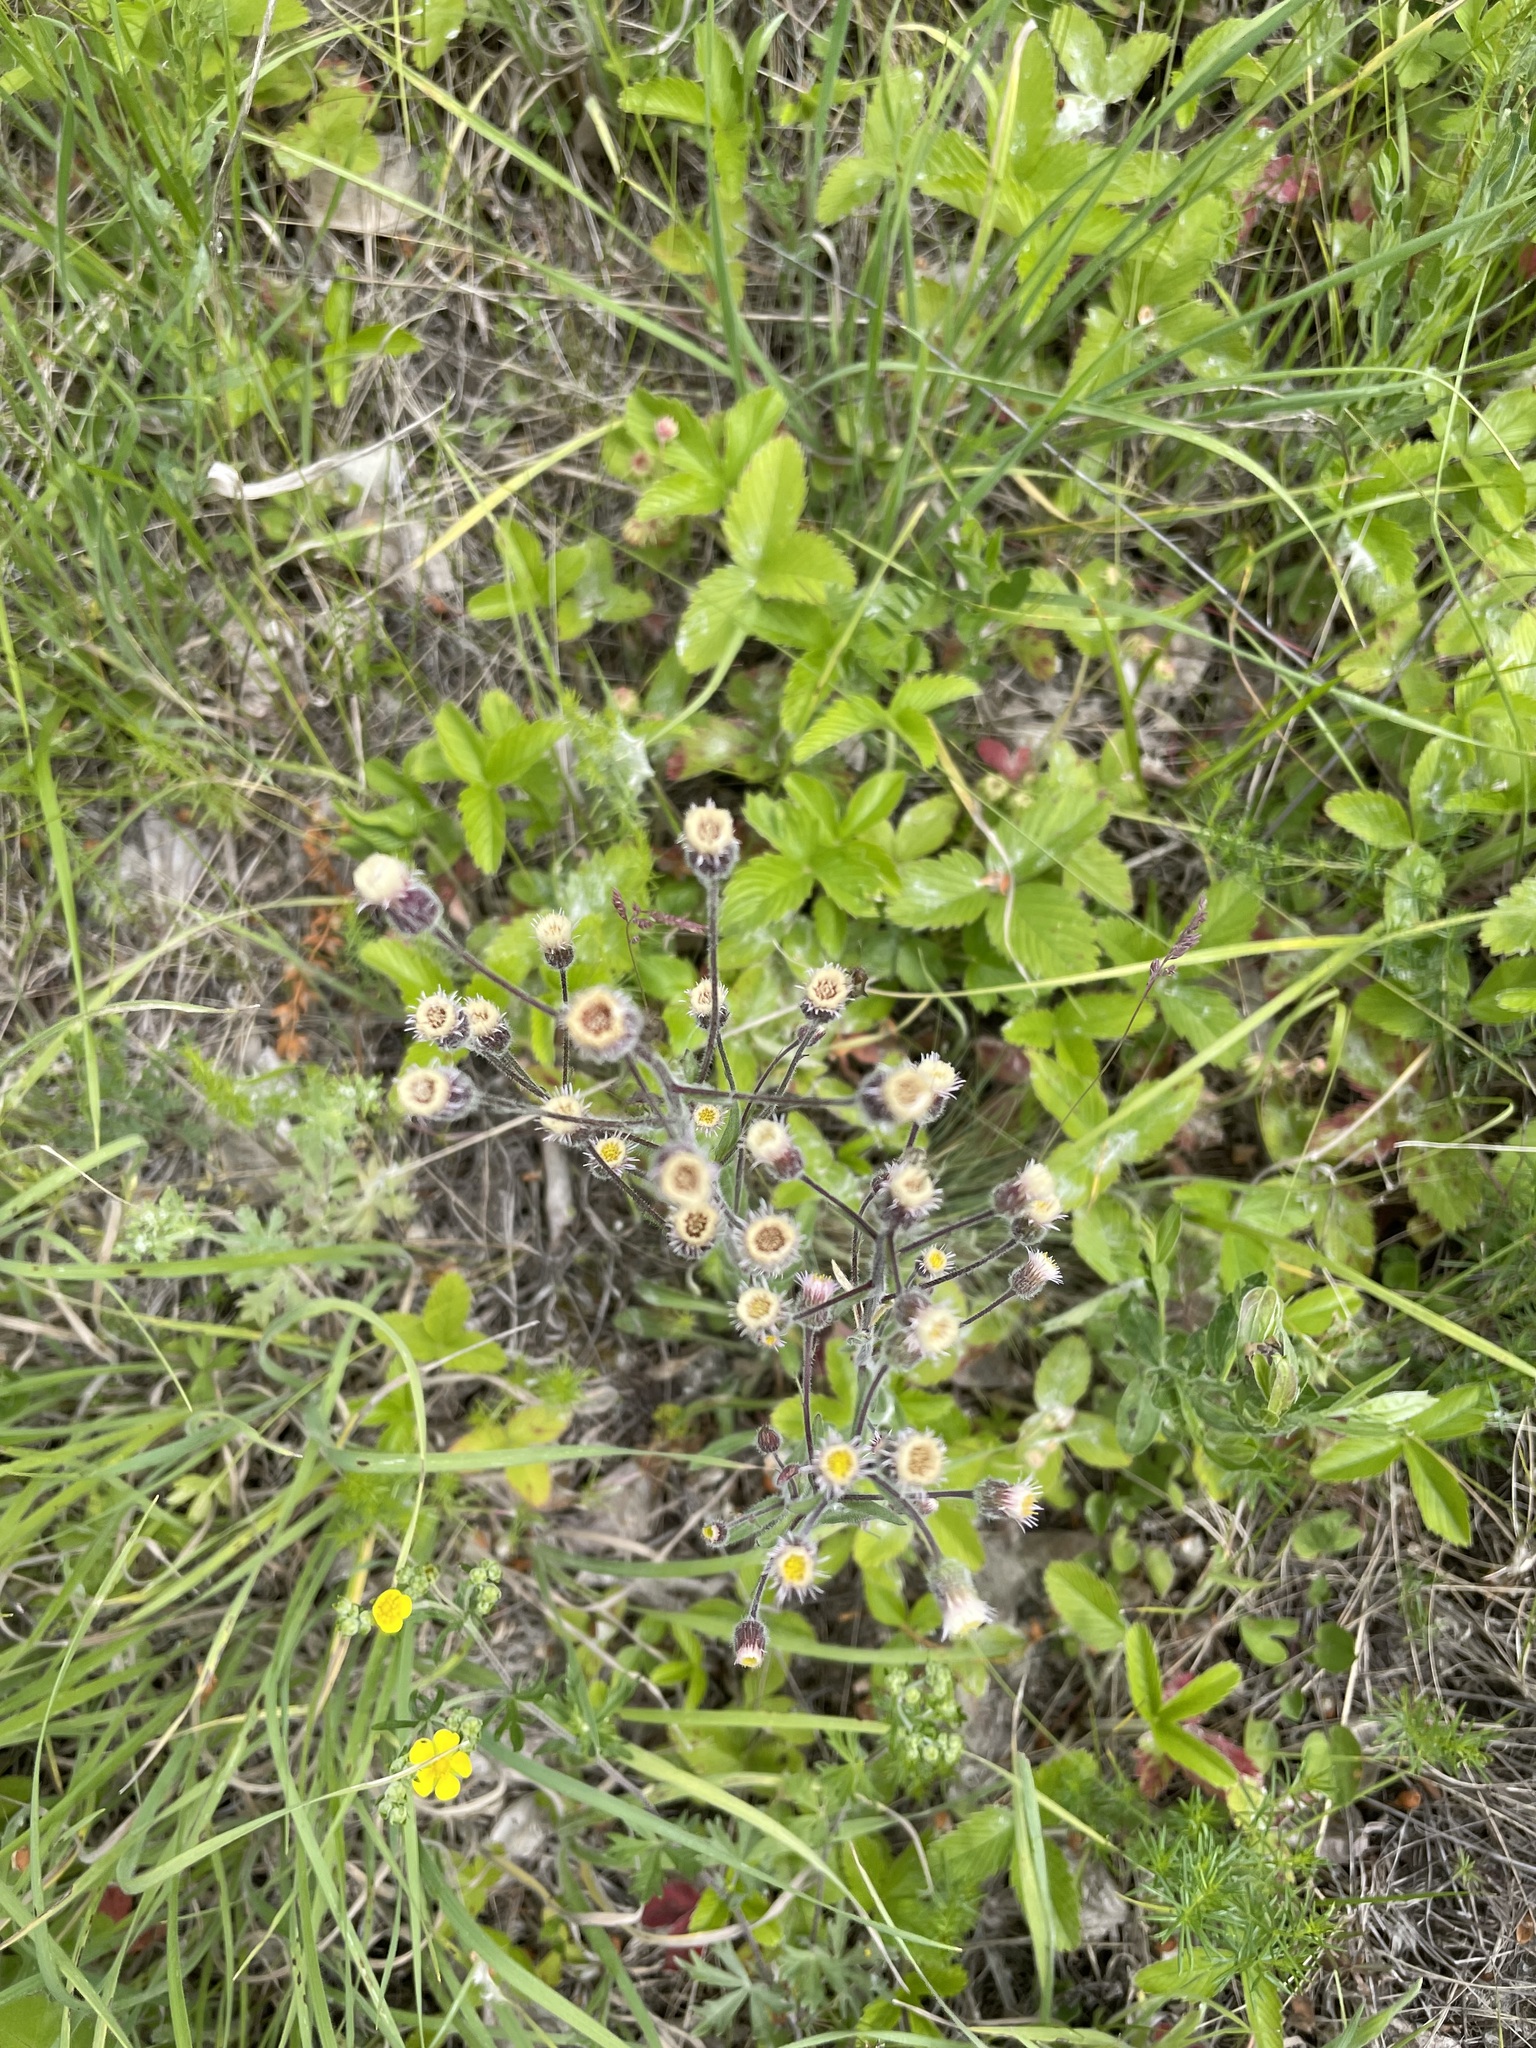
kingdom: Plantae
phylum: Tracheophyta
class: Magnoliopsida
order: Asterales
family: Asteraceae
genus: Erigeron
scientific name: Erigeron acris
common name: Blue fleabane
